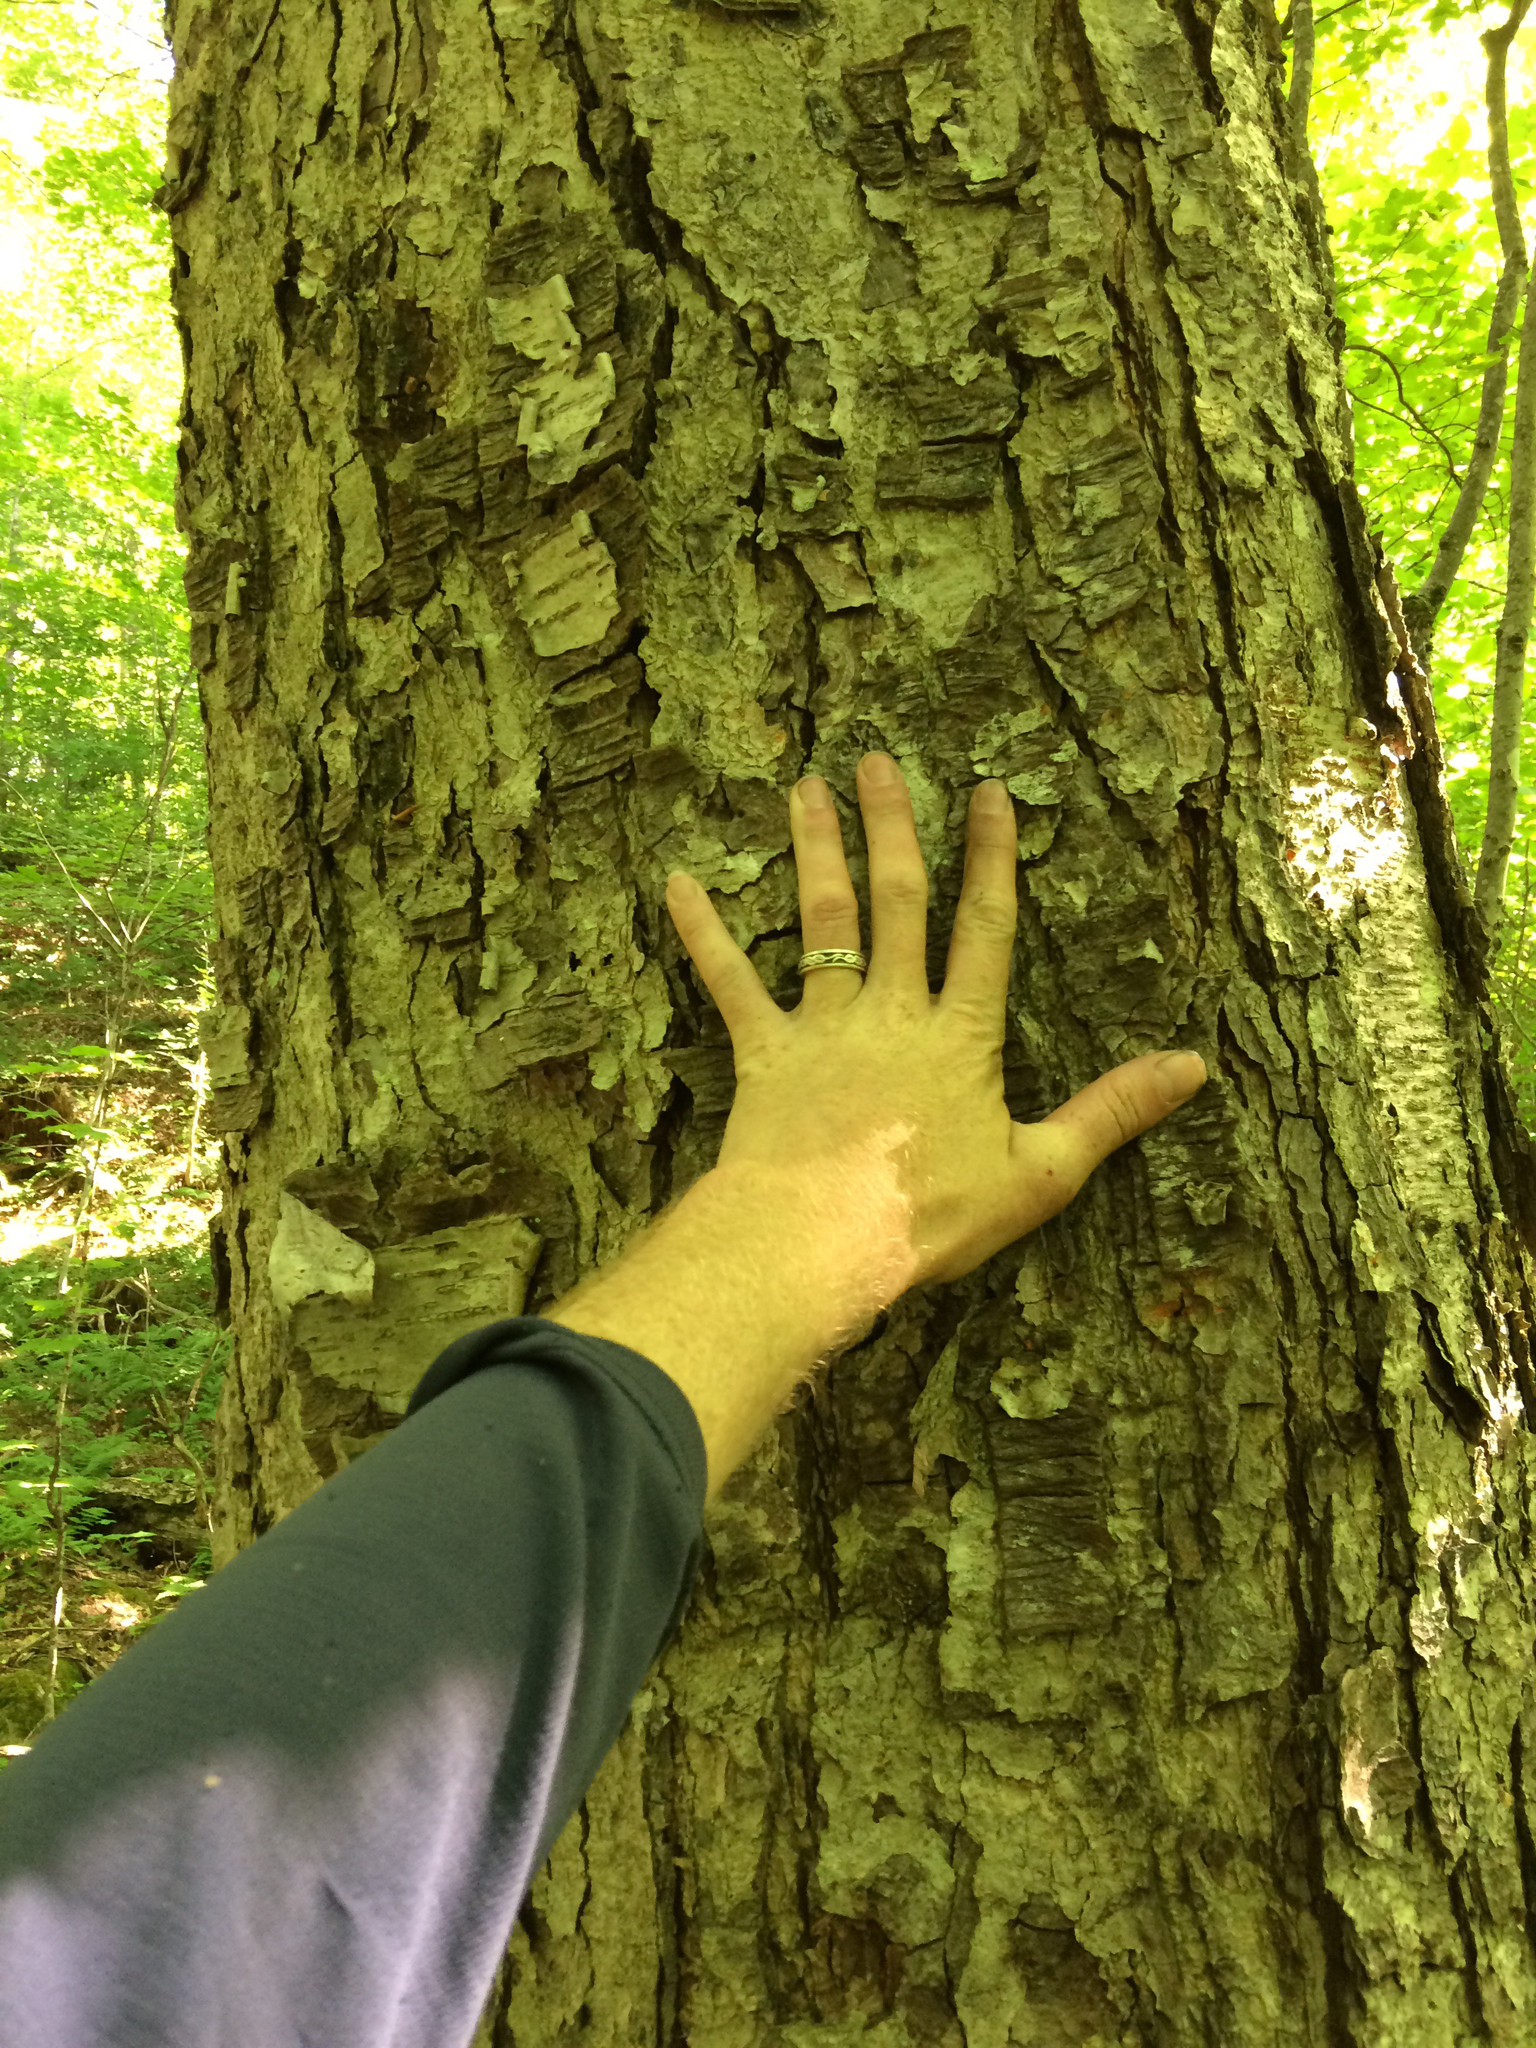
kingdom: Plantae
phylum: Tracheophyta
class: Magnoliopsida
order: Fagales
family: Betulaceae
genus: Betula
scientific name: Betula alleghaniensis
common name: Yellow birch
